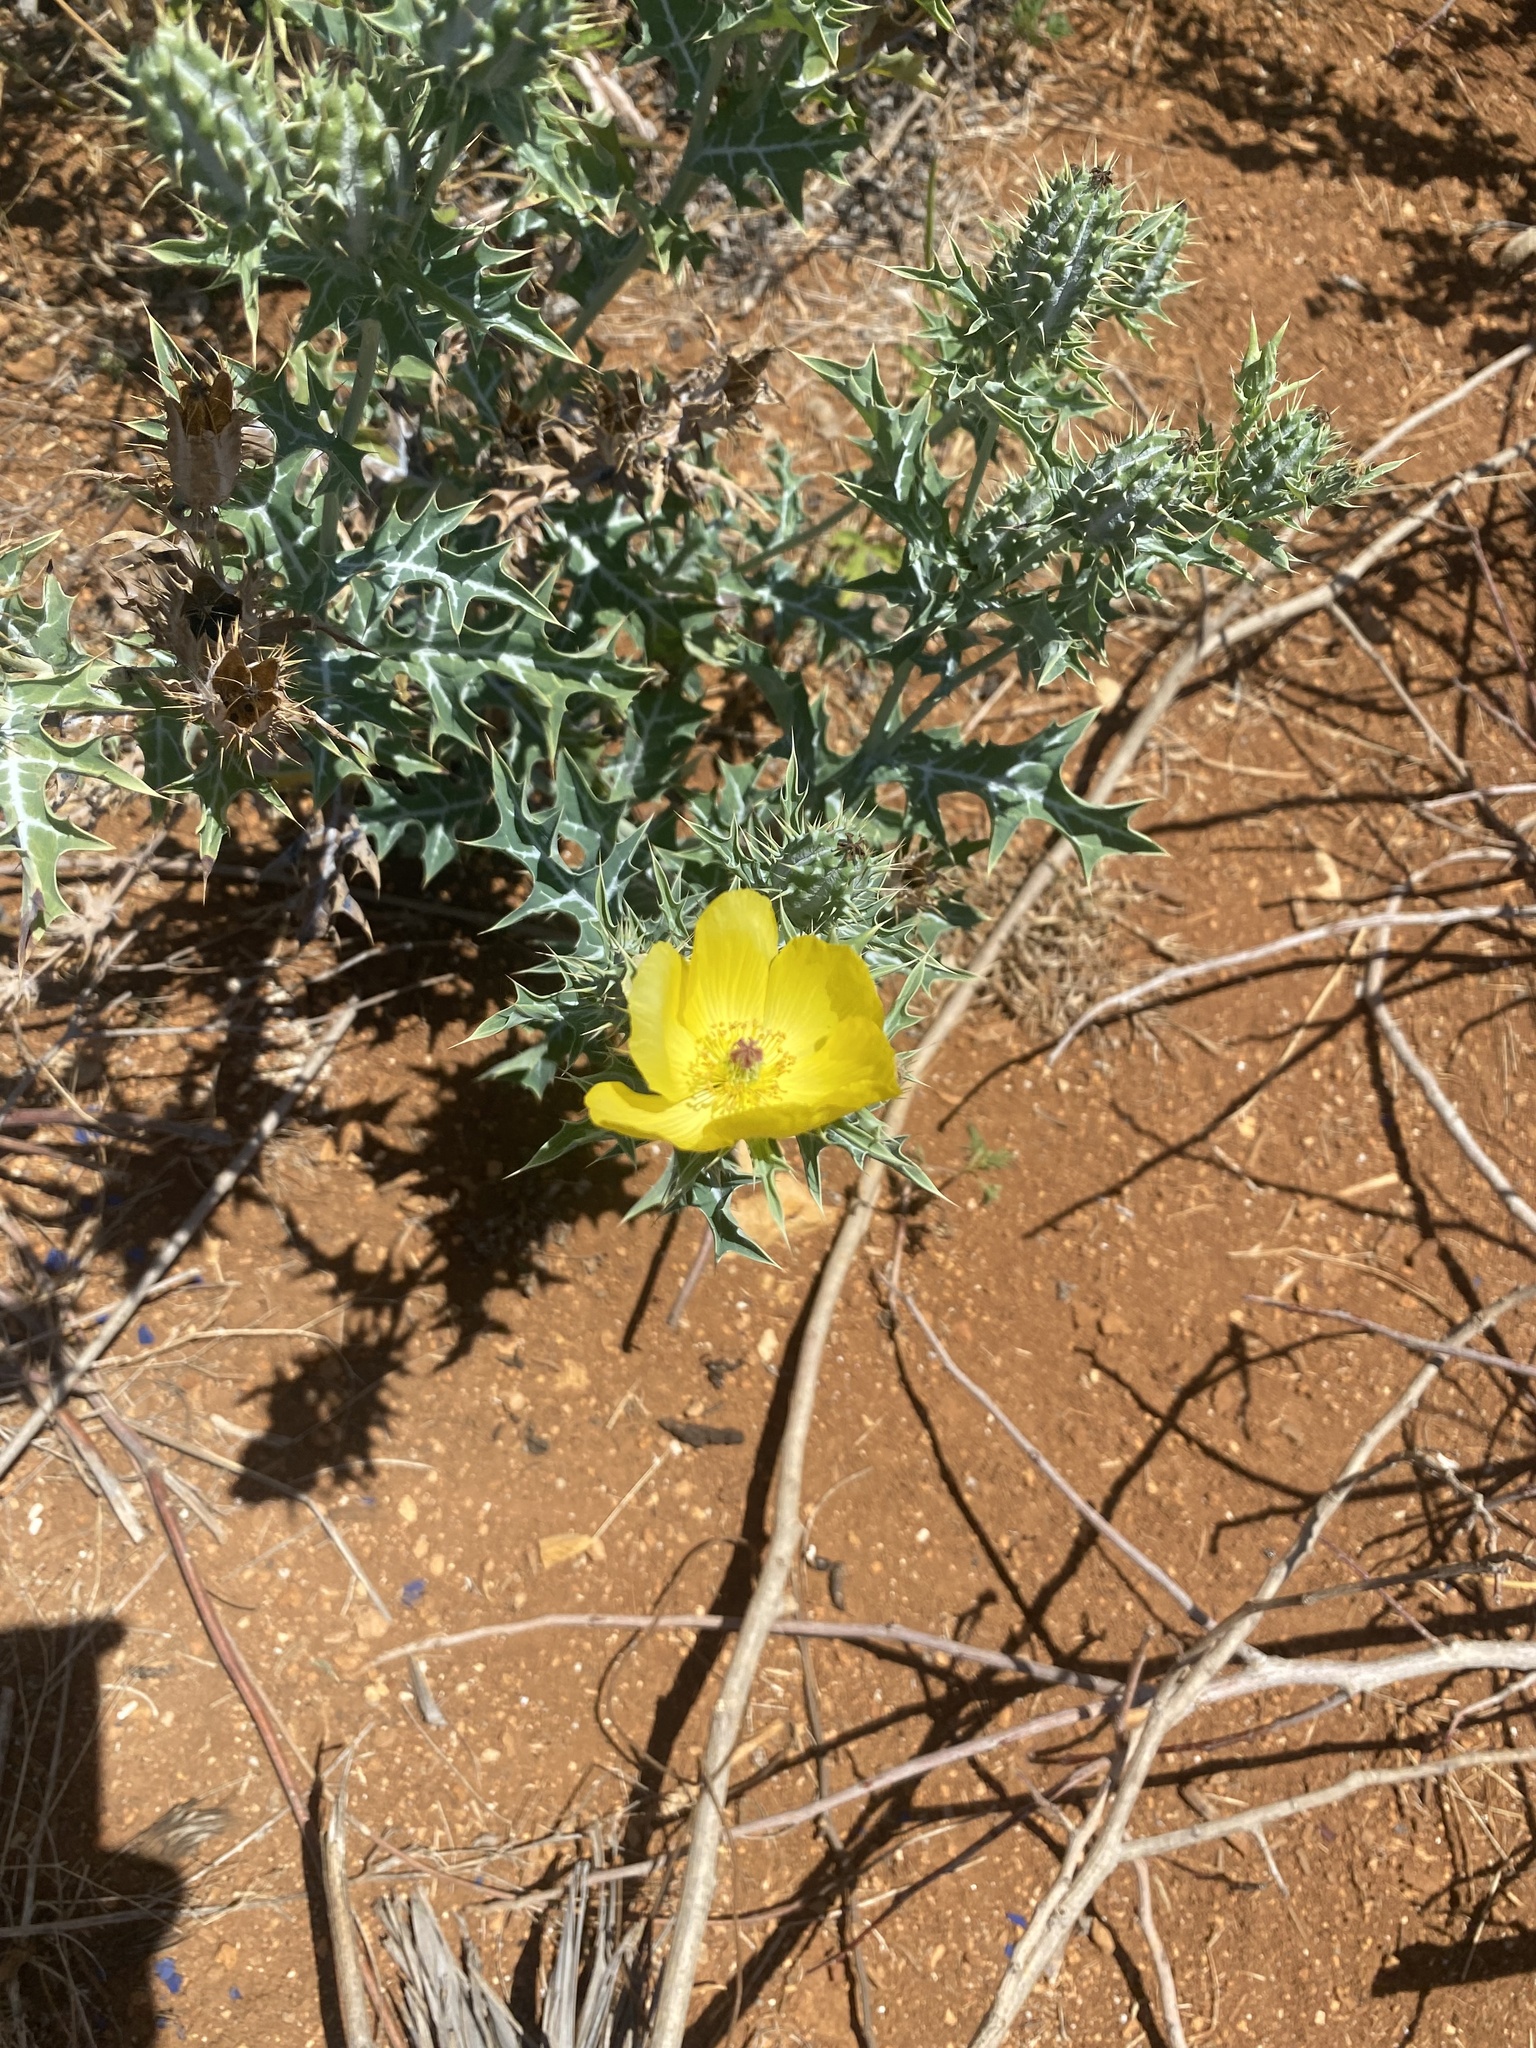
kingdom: Plantae
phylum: Tracheophyta
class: Magnoliopsida
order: Ranunculales
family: Papaveraceae
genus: Argemone
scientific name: Argemone mexicana
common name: Mexican poppy
